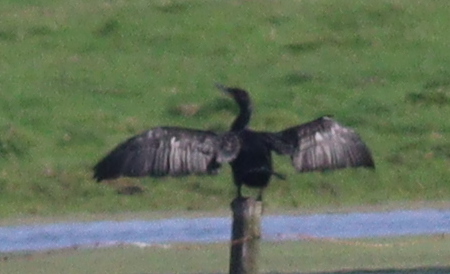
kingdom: Animalia
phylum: Chordata
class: Aves
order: Suliformes
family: Phalacrocoracidae
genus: Phalacrocorax
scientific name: Phalacrocorax carbo
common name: Great cormorant
